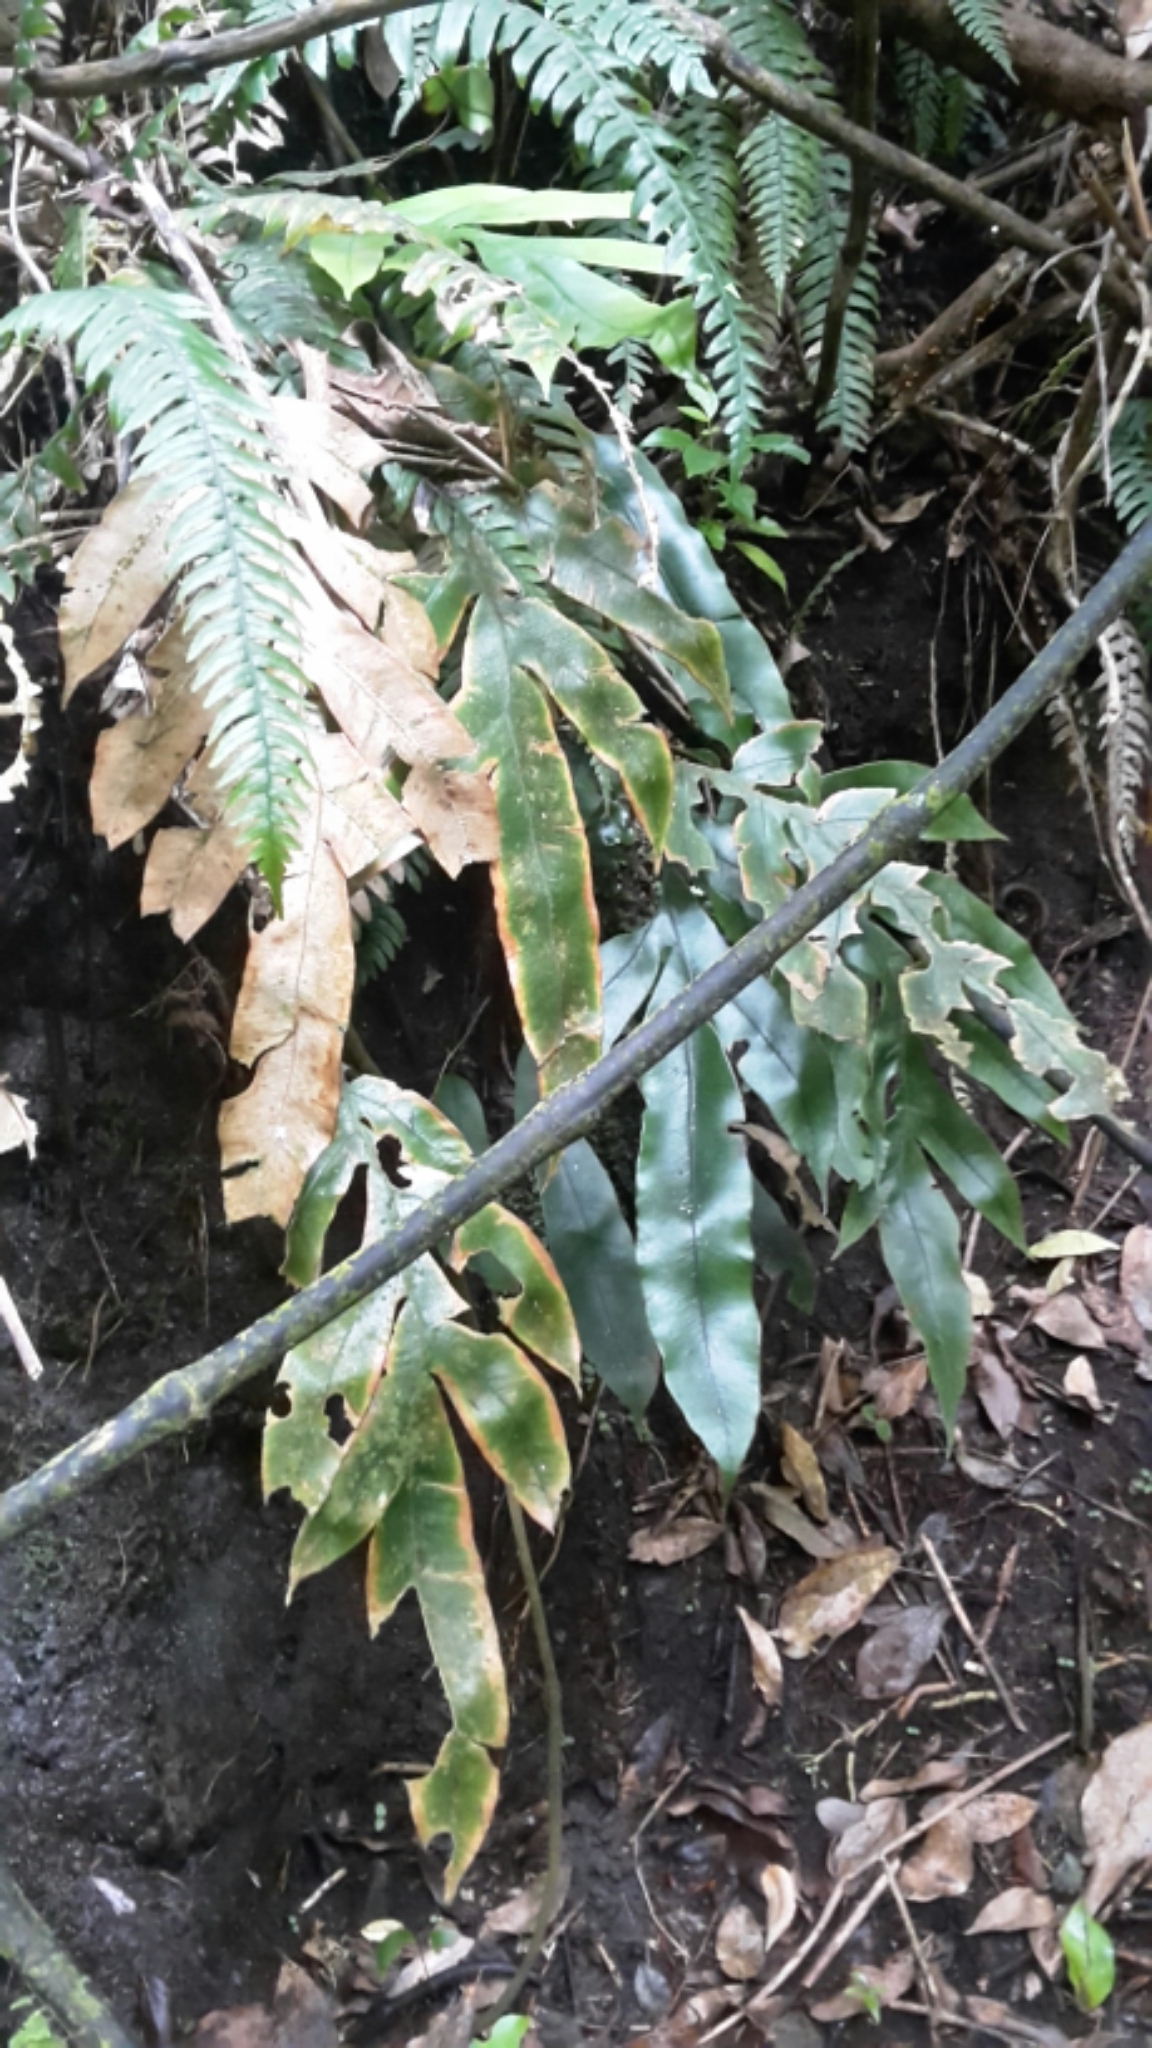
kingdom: Plantae
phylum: Tracheophyta
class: Polypodiopsida
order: Polypodiales
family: Blechnaceae
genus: Austroblechnum
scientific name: Austroblechnum colensoi
